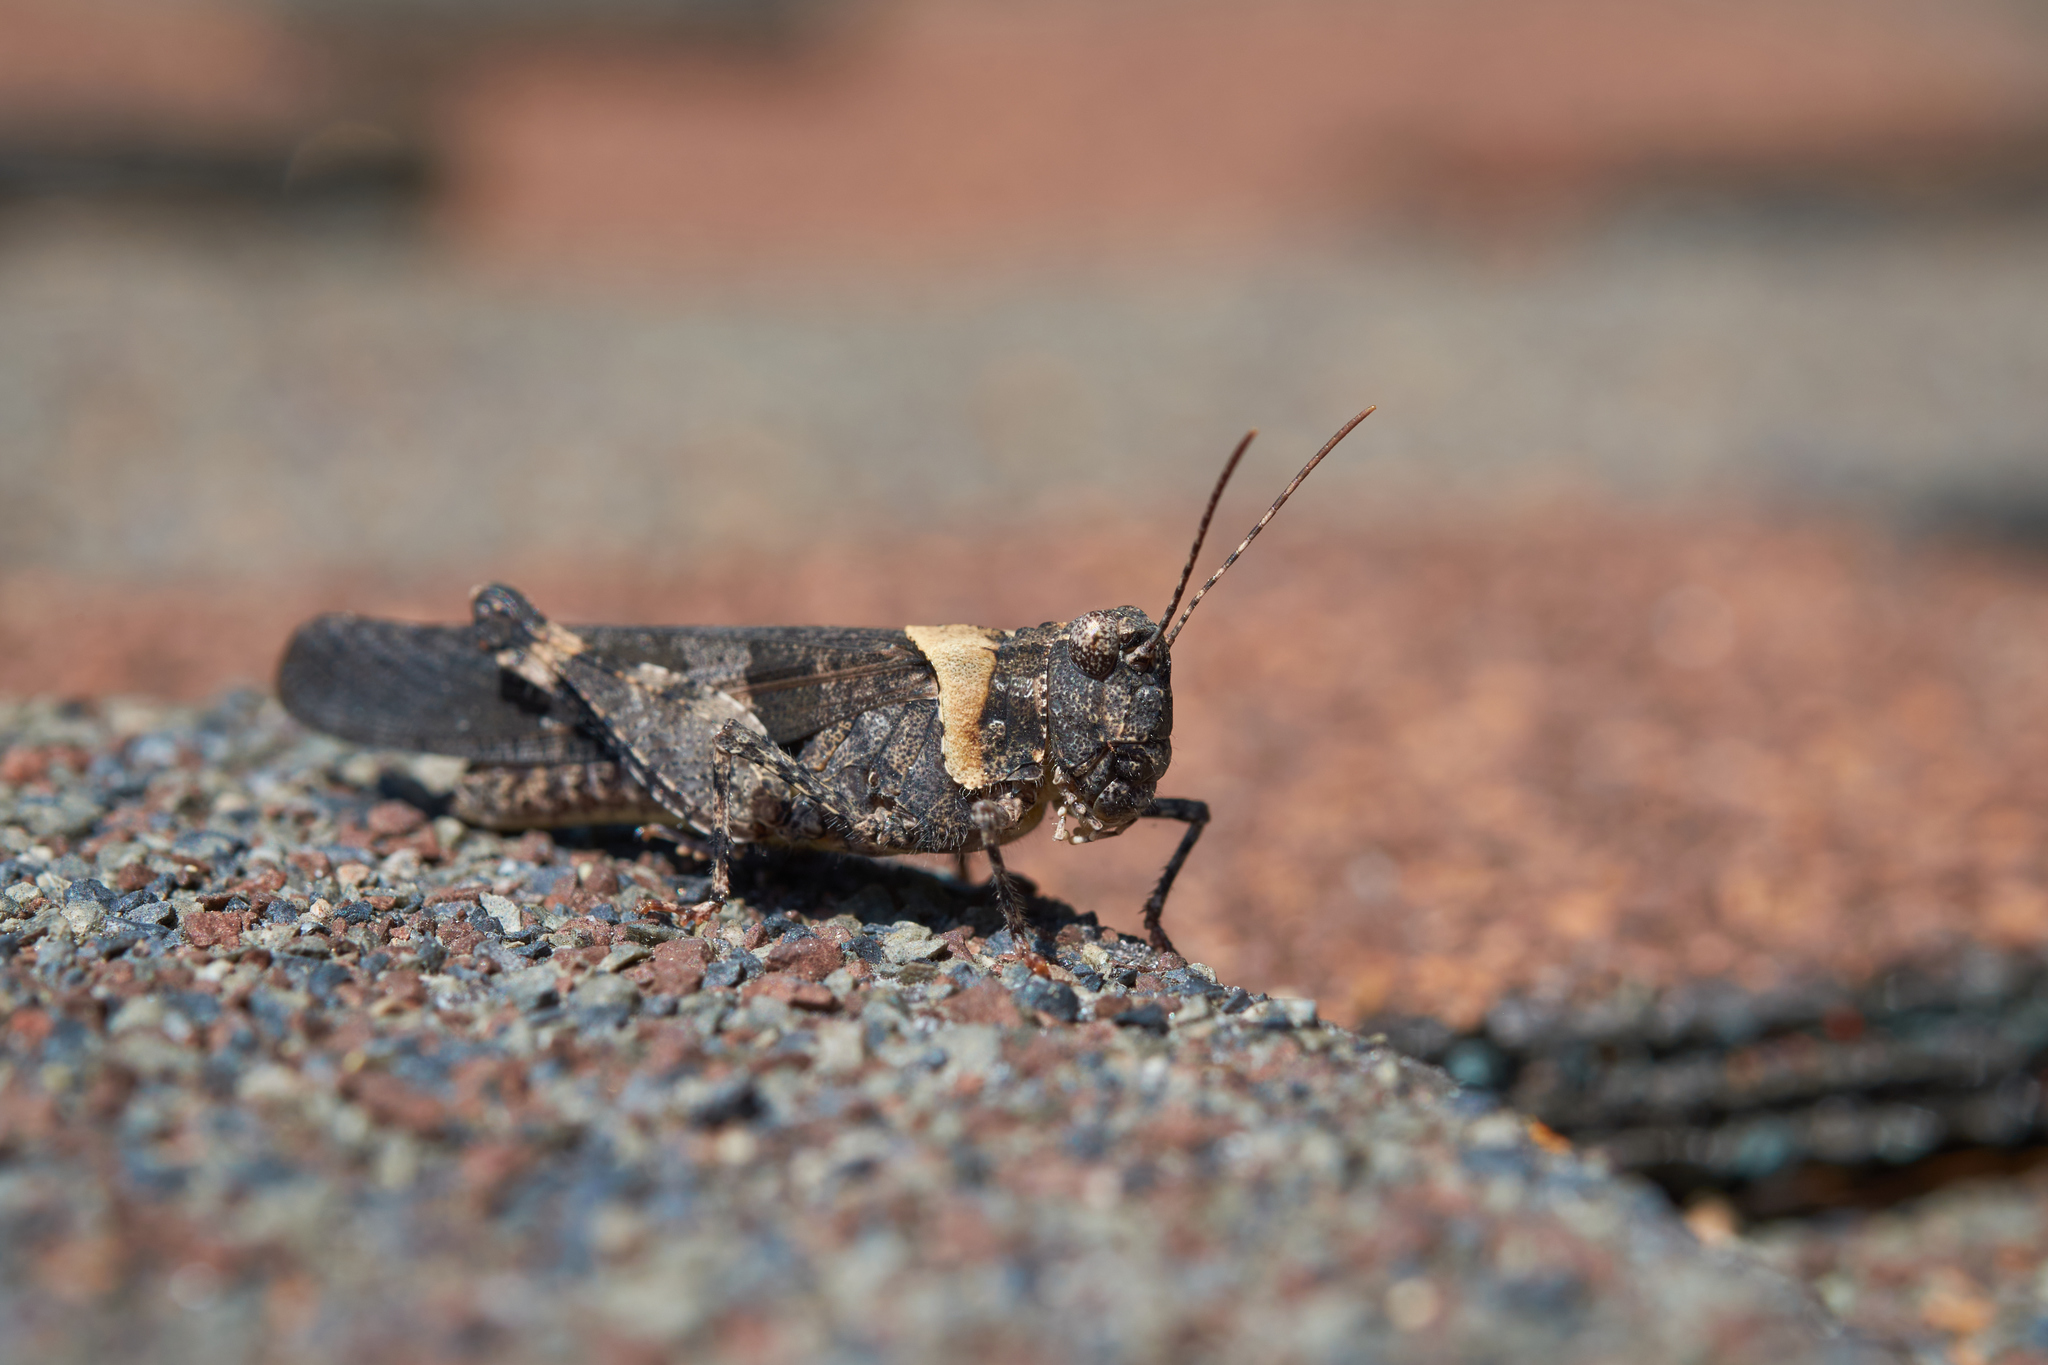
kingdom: Animalia
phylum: Arthropoda
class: Insecta
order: Orthoptera
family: Acrididae
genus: Trimerotropis
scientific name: Trimerotropis fontana
